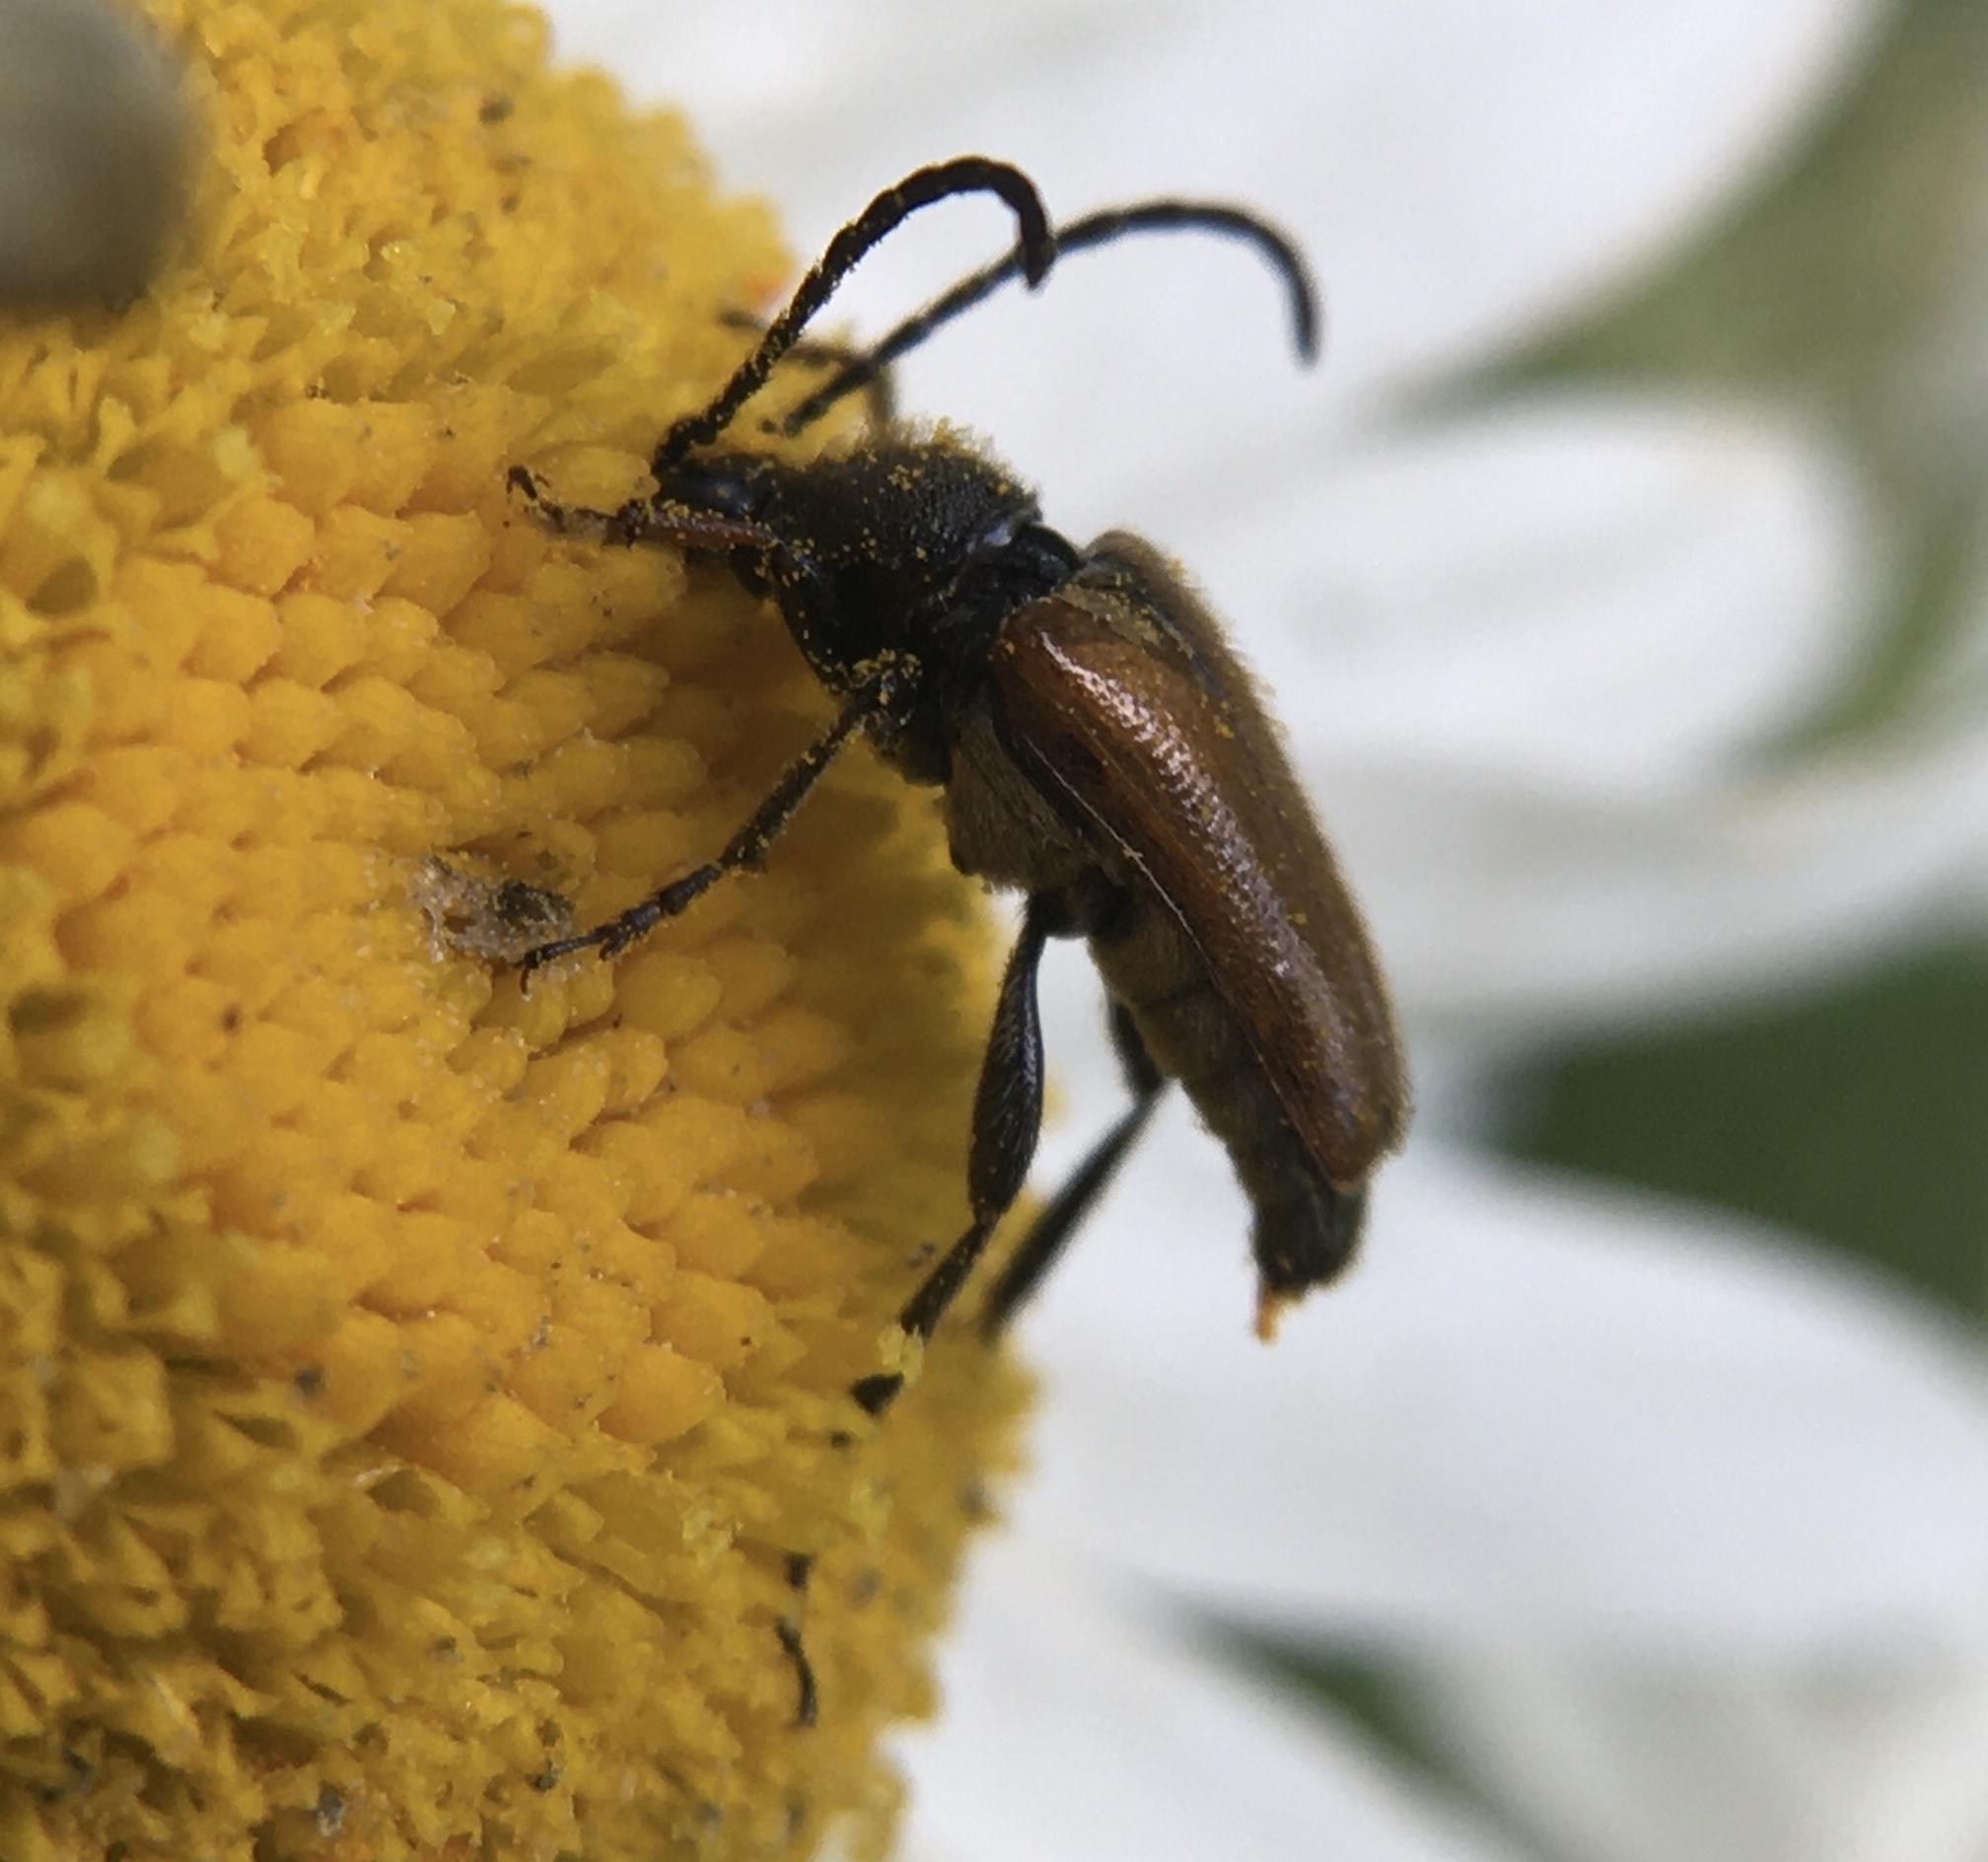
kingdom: Animalia
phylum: Arthropoda
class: Insecta
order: Coleoptera
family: Cerambycidae
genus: Pseudovadonia
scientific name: Pseudovadonia livida
